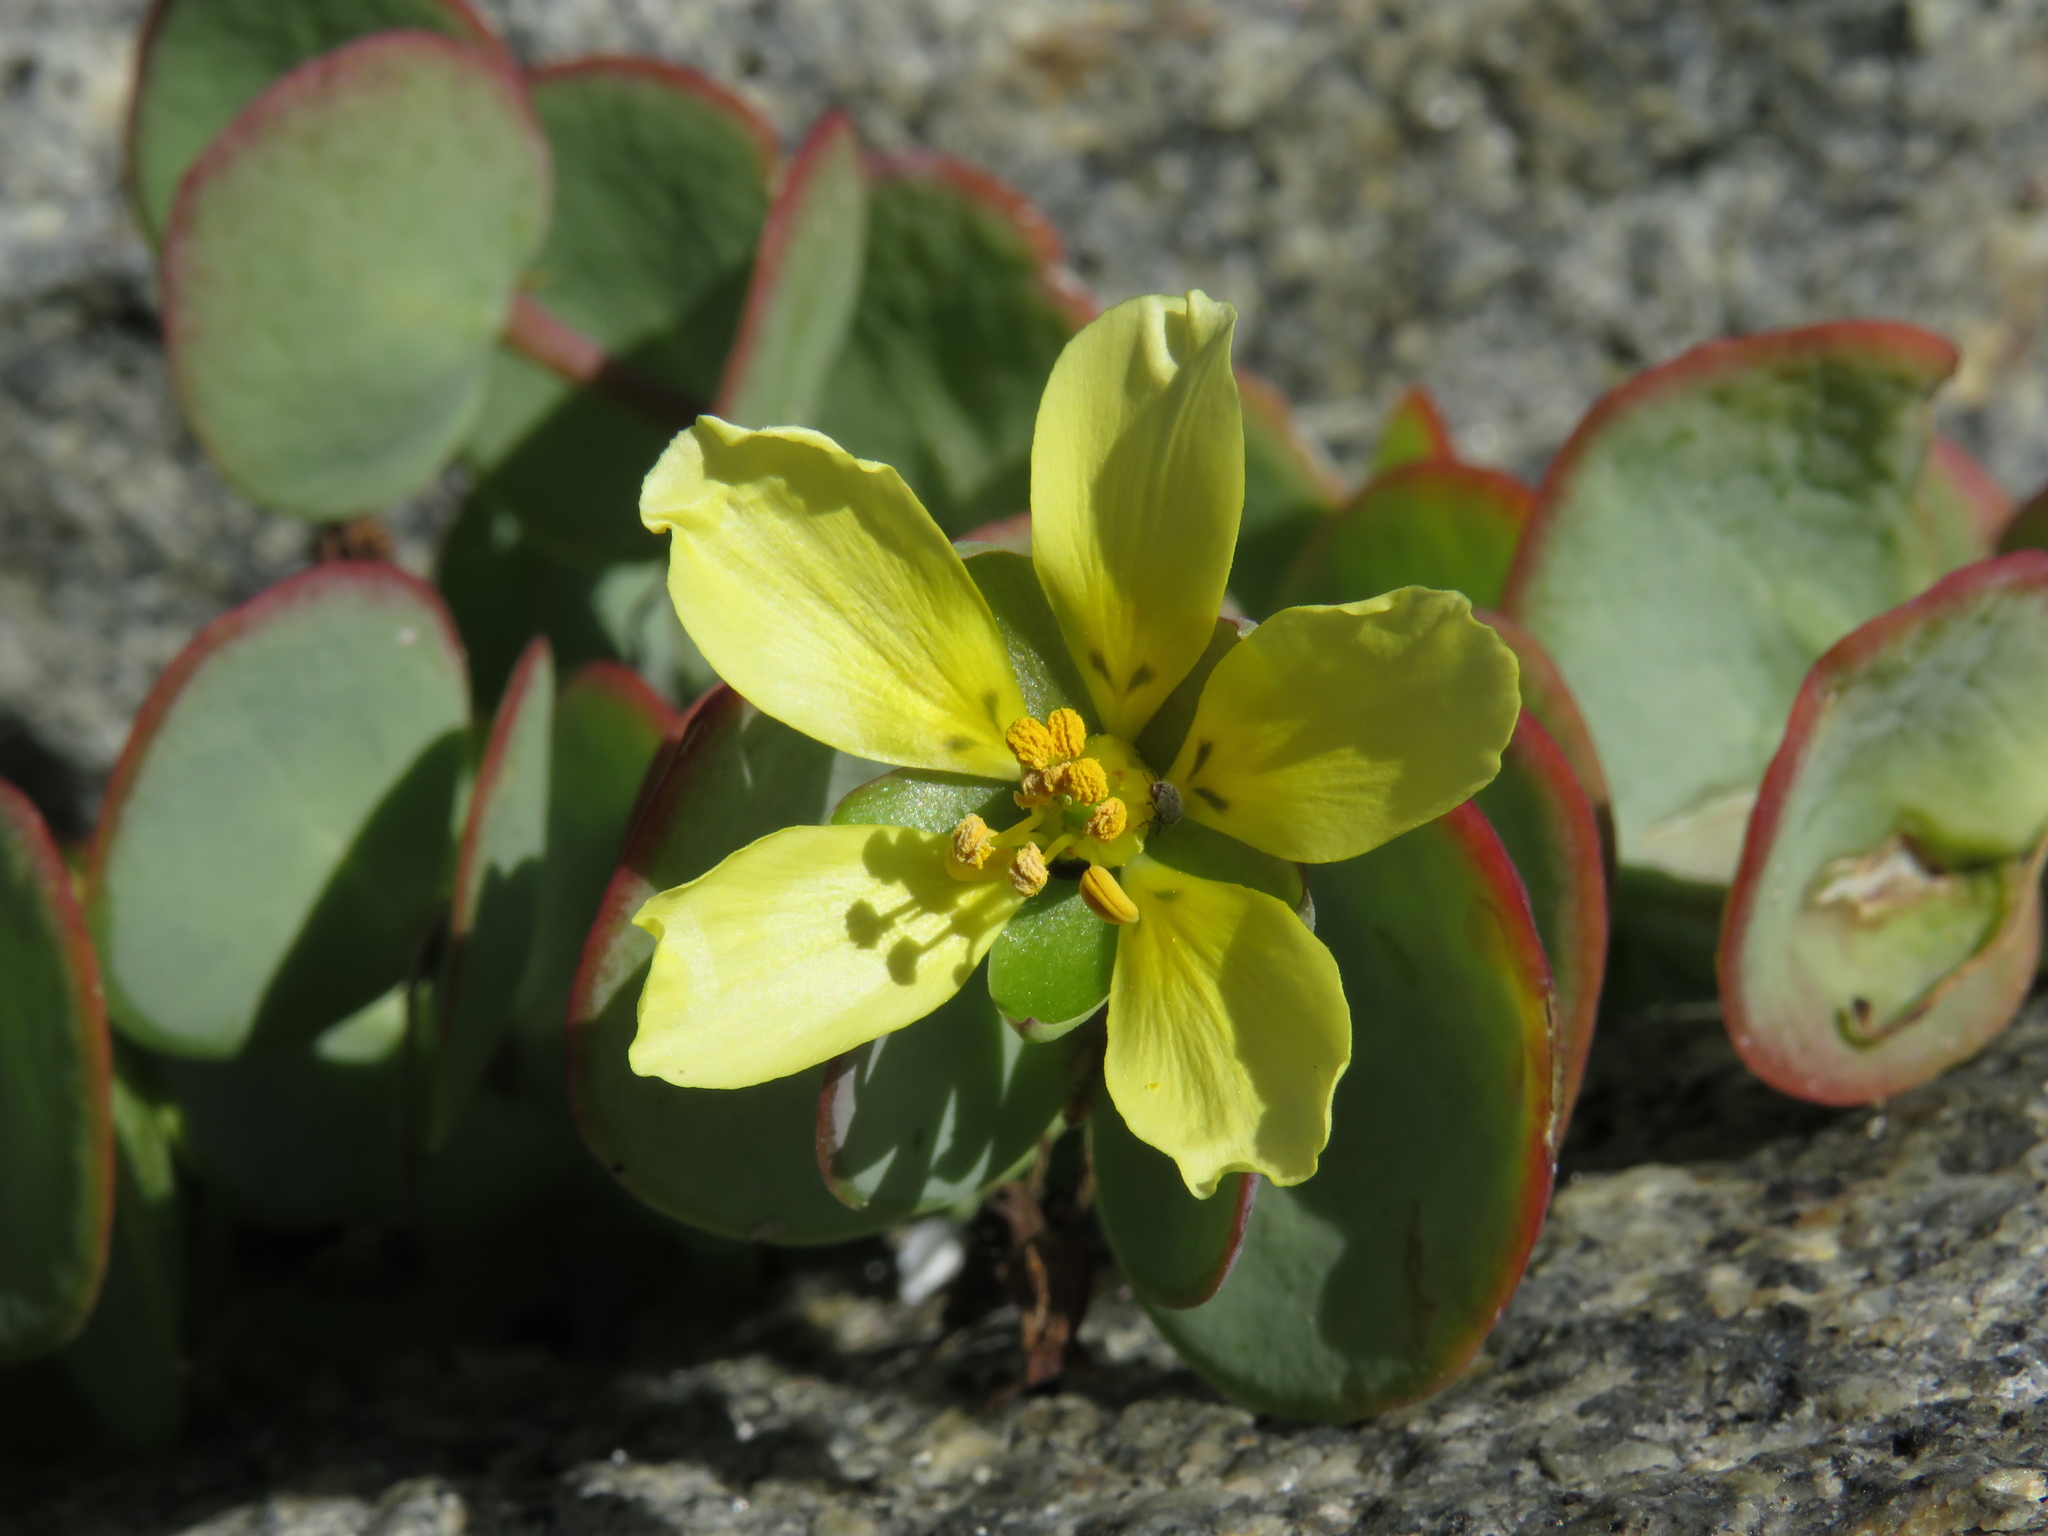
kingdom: Plantae
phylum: Tracheophyta
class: Magnoliopsida
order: Zygophyllales
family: Zygophyllaceae
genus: Roepera
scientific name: Roepera cordifolia
